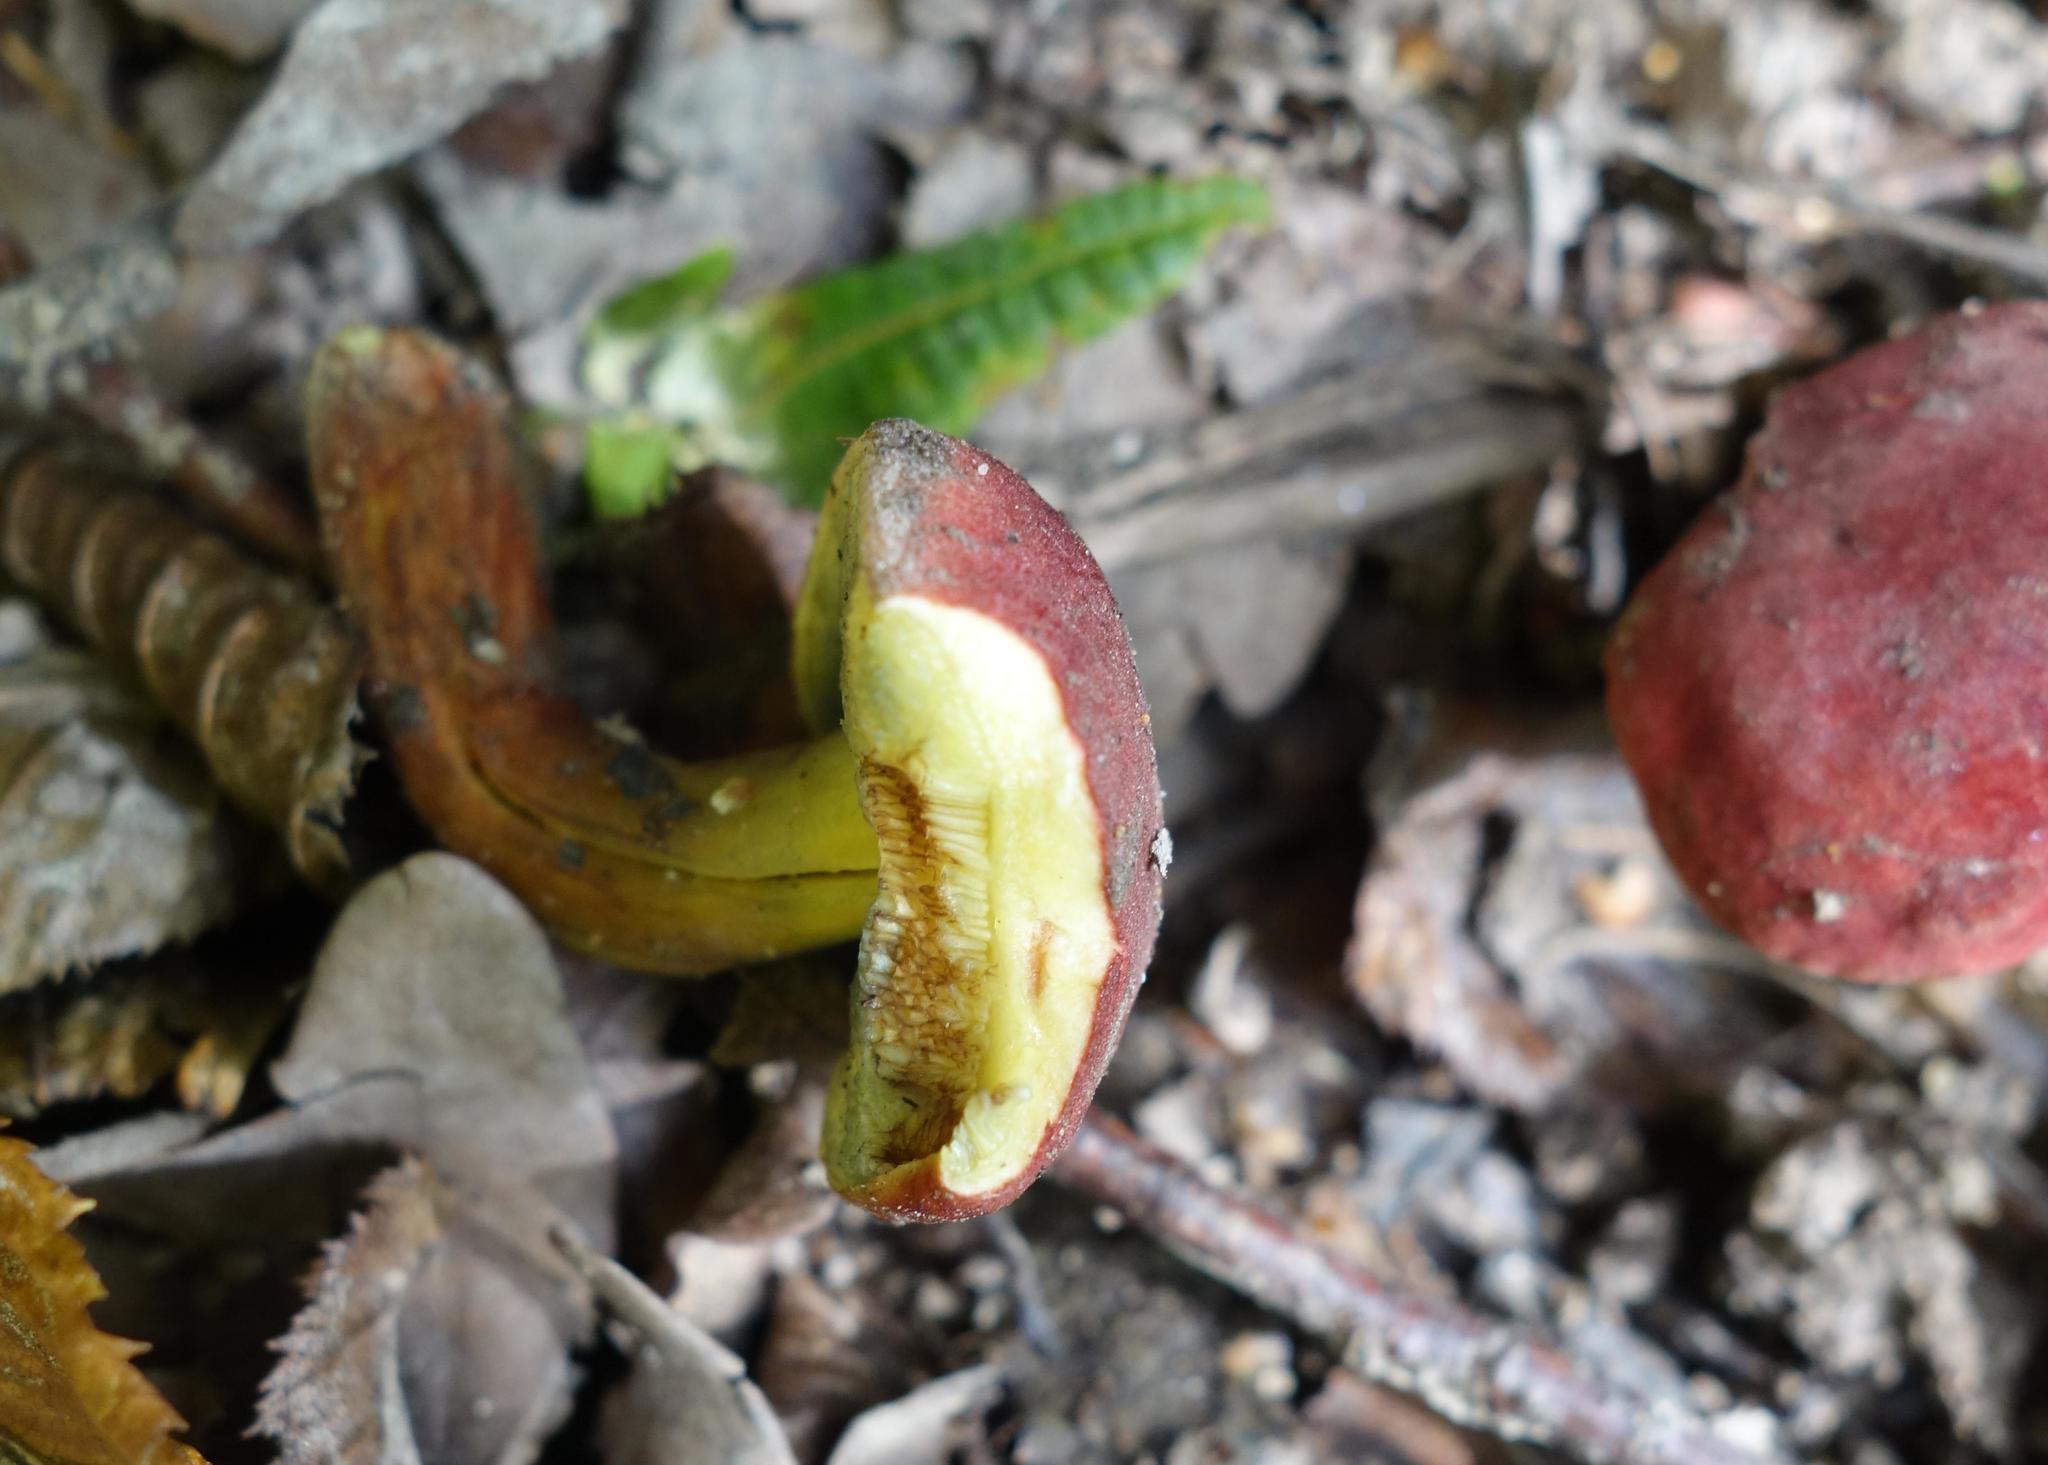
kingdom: Fungi
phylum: Basidiomycota
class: Agaricomycetes
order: Boletales
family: Boletaceae
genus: Hortiboletus
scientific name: Hortiboletus rubellus
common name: Ruby bolete
